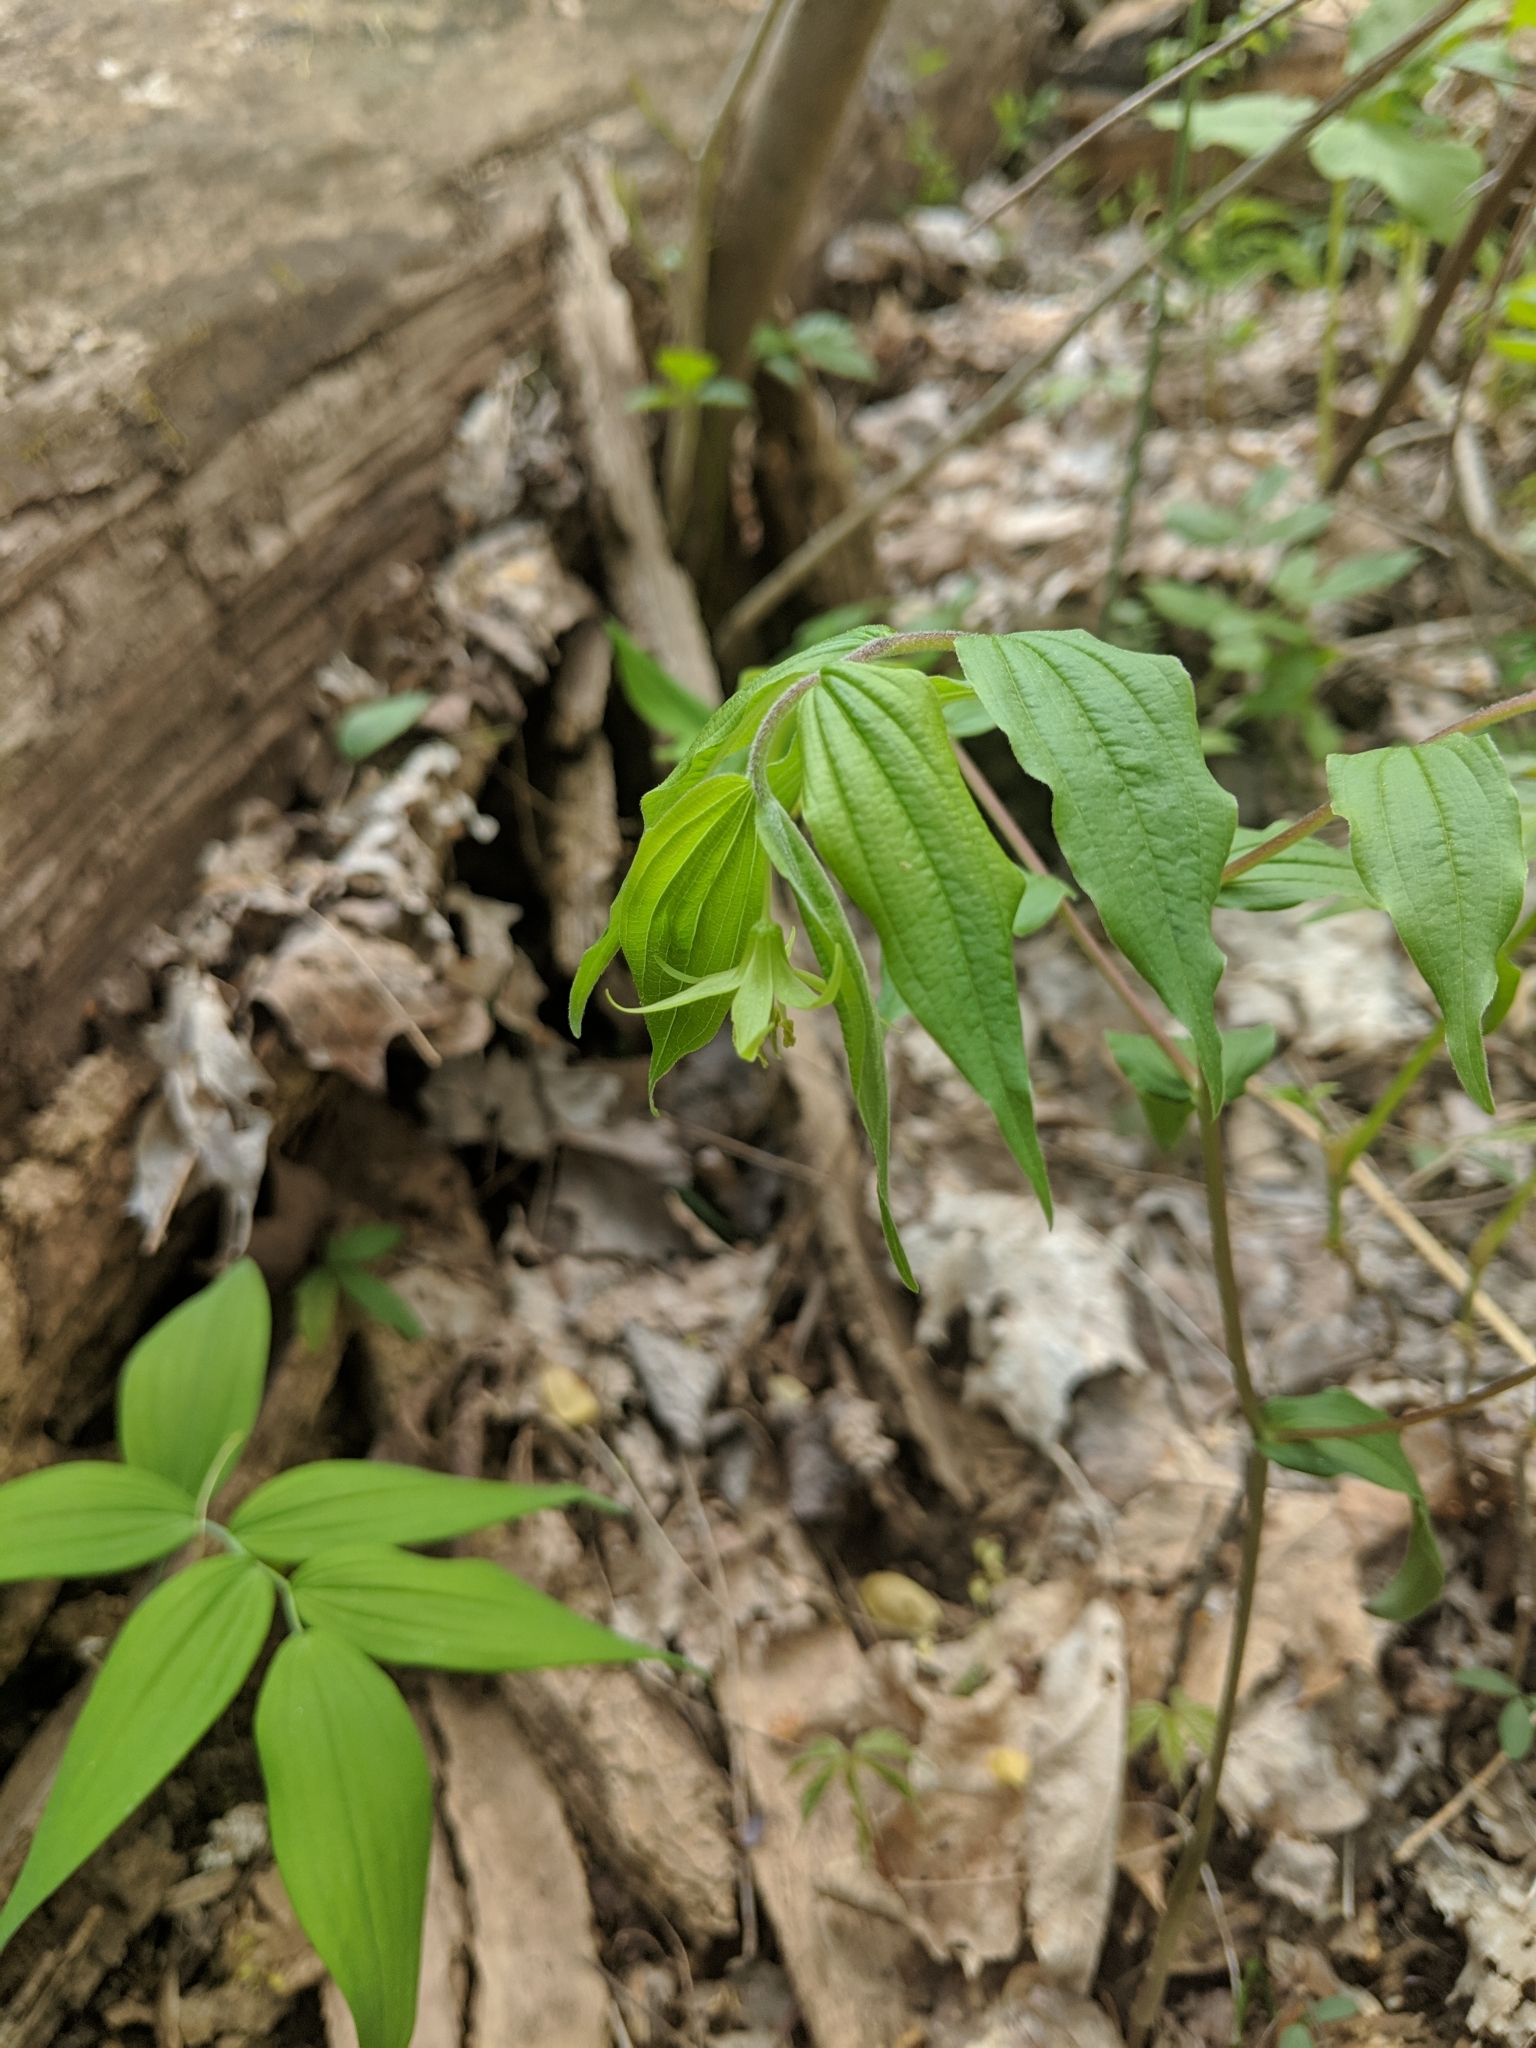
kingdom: Plantae
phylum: Tracheophyta
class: Liliopsida
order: Liliales
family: Liliaceae
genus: Prosartes
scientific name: Prosartes lanuginosa
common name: Hairy mandarin
